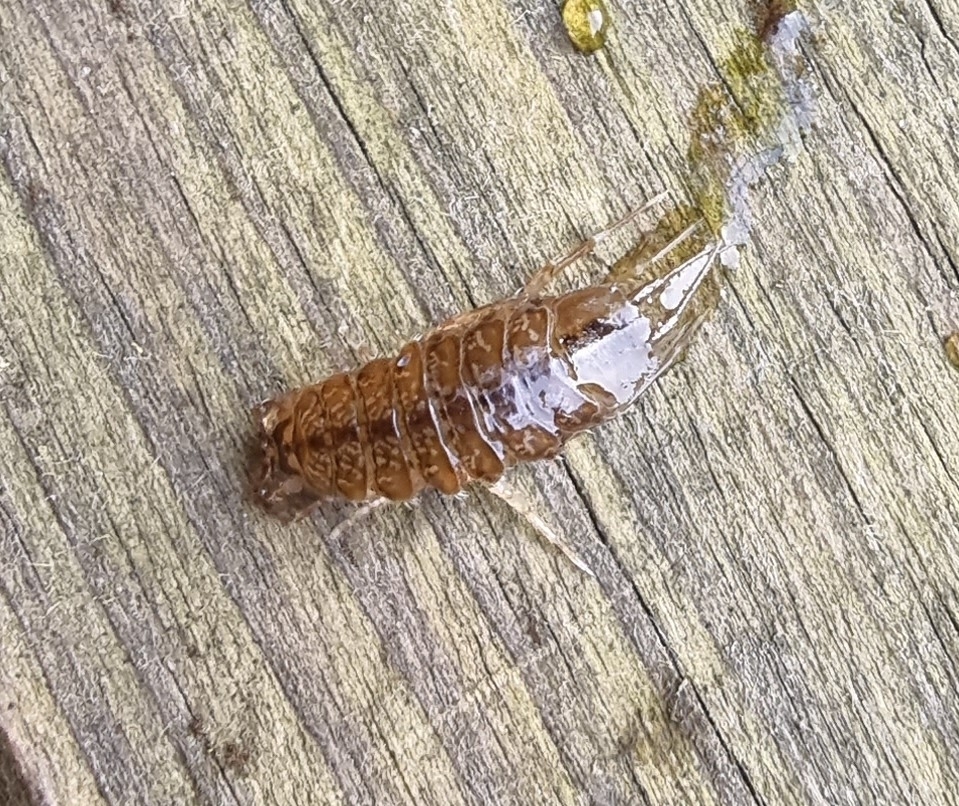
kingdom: Animalia
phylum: Arthropoda
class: Malacostraca
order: Isopoda
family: Asellidae
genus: Asellus
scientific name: Asellus aquaticus
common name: Water hog lice/slaters
